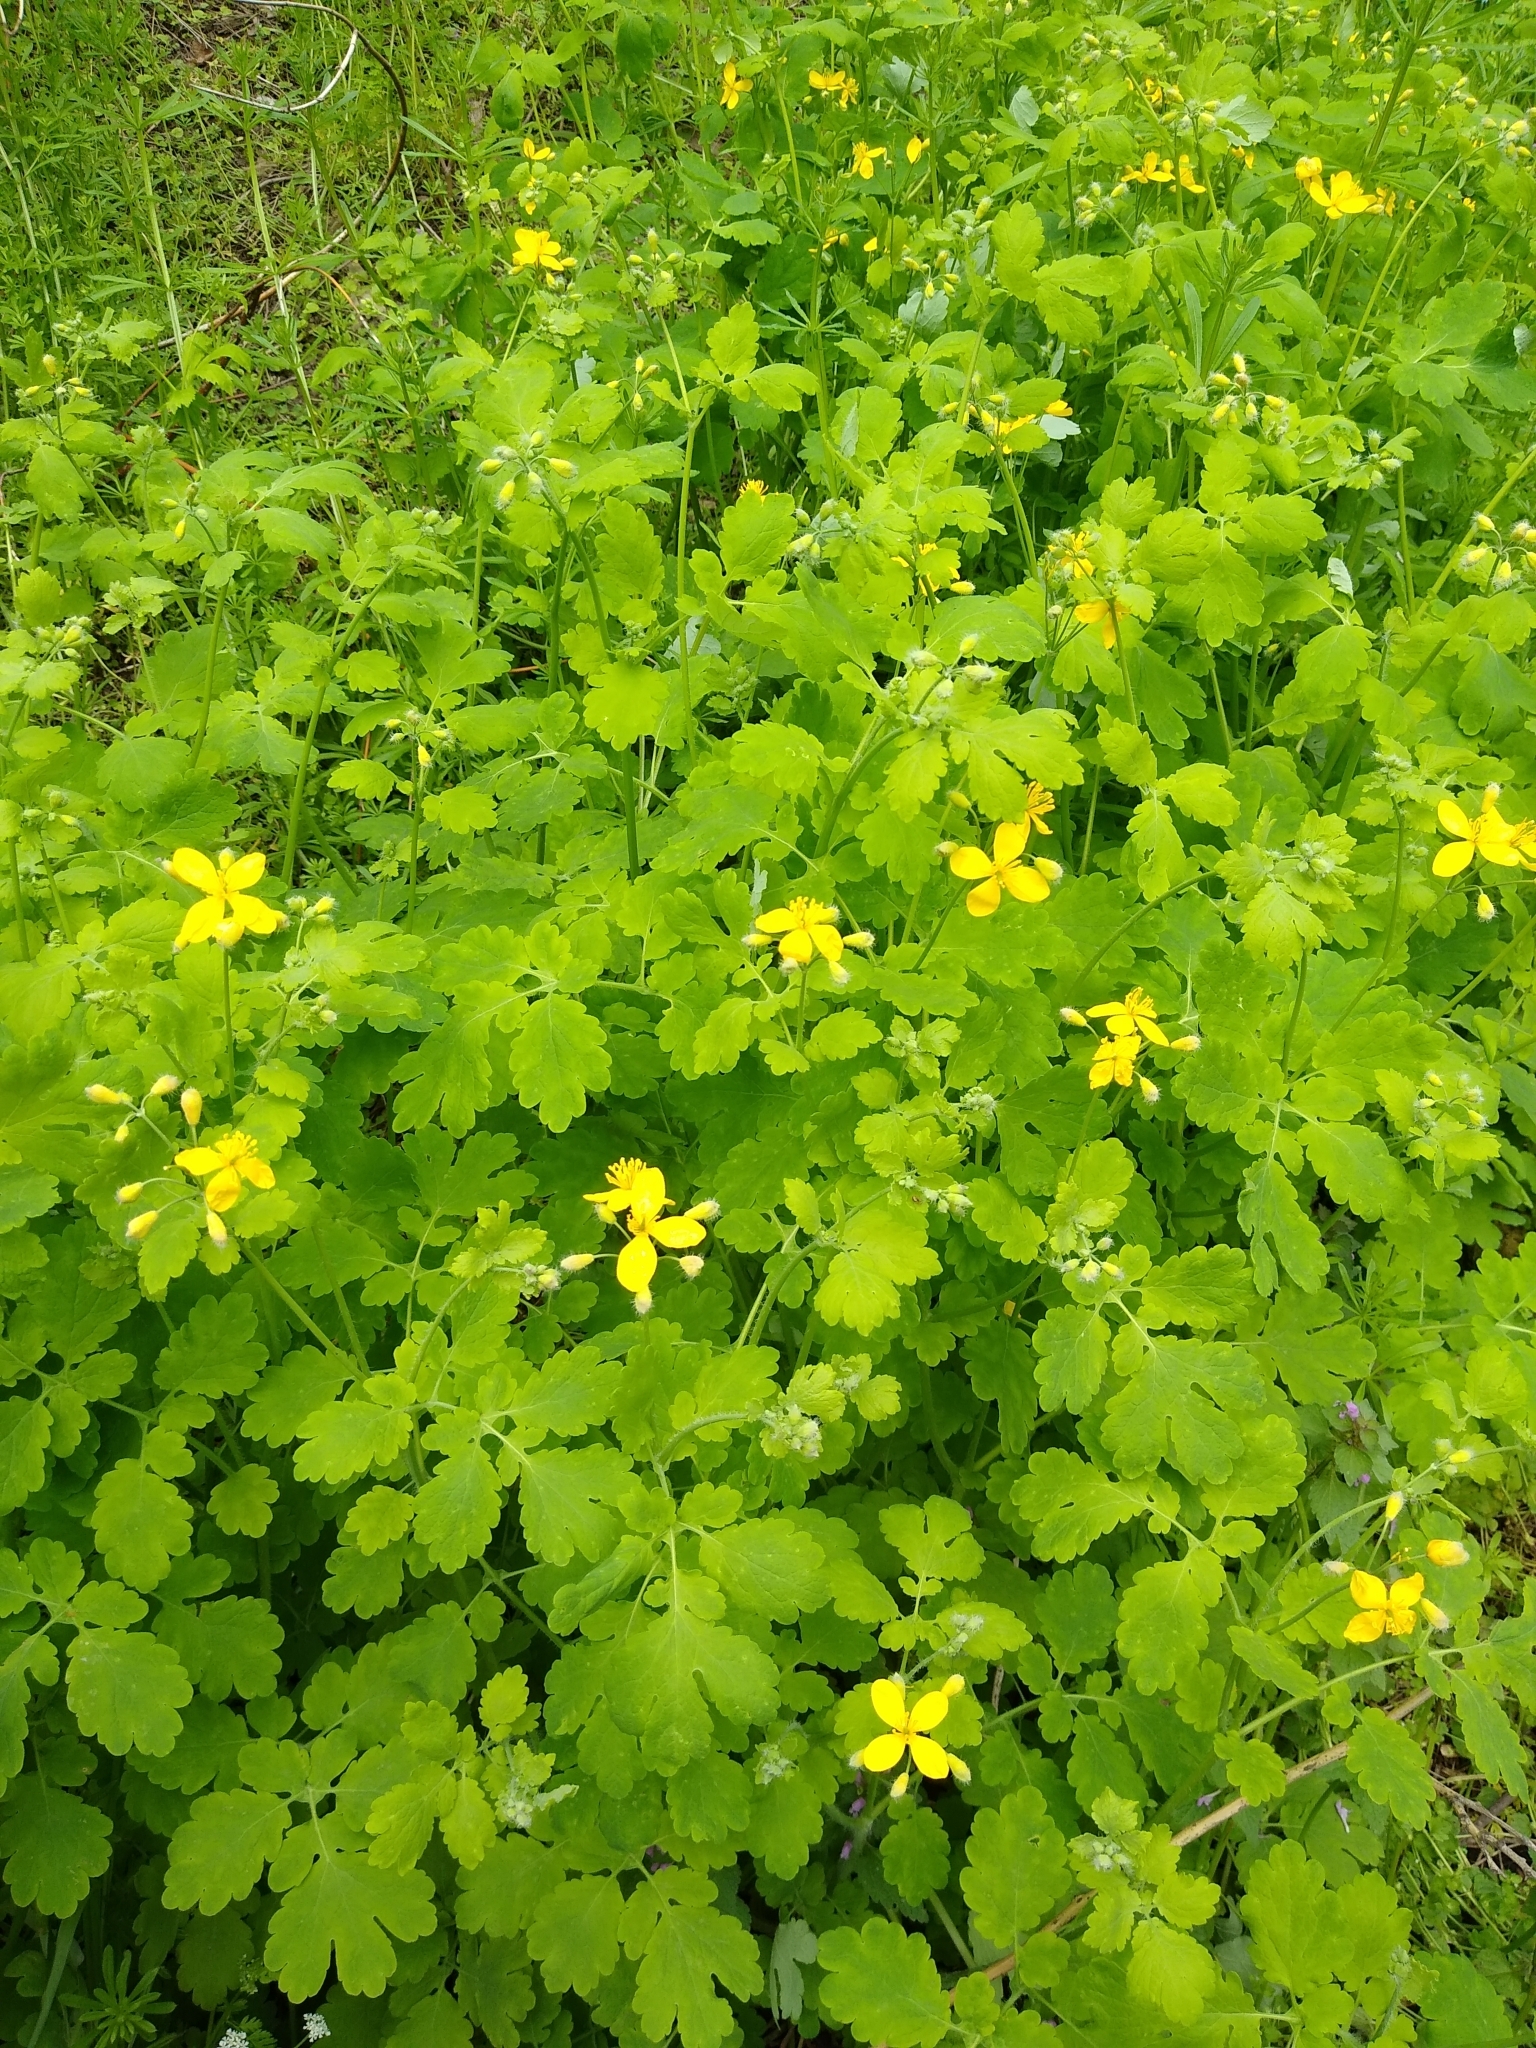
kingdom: Plantae
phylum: Tracheophyta
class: Magnoliopsida
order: Ranunculales
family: Papaveraceae
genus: Chelidonium
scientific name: Chelidonium majus
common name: Greater celandine
